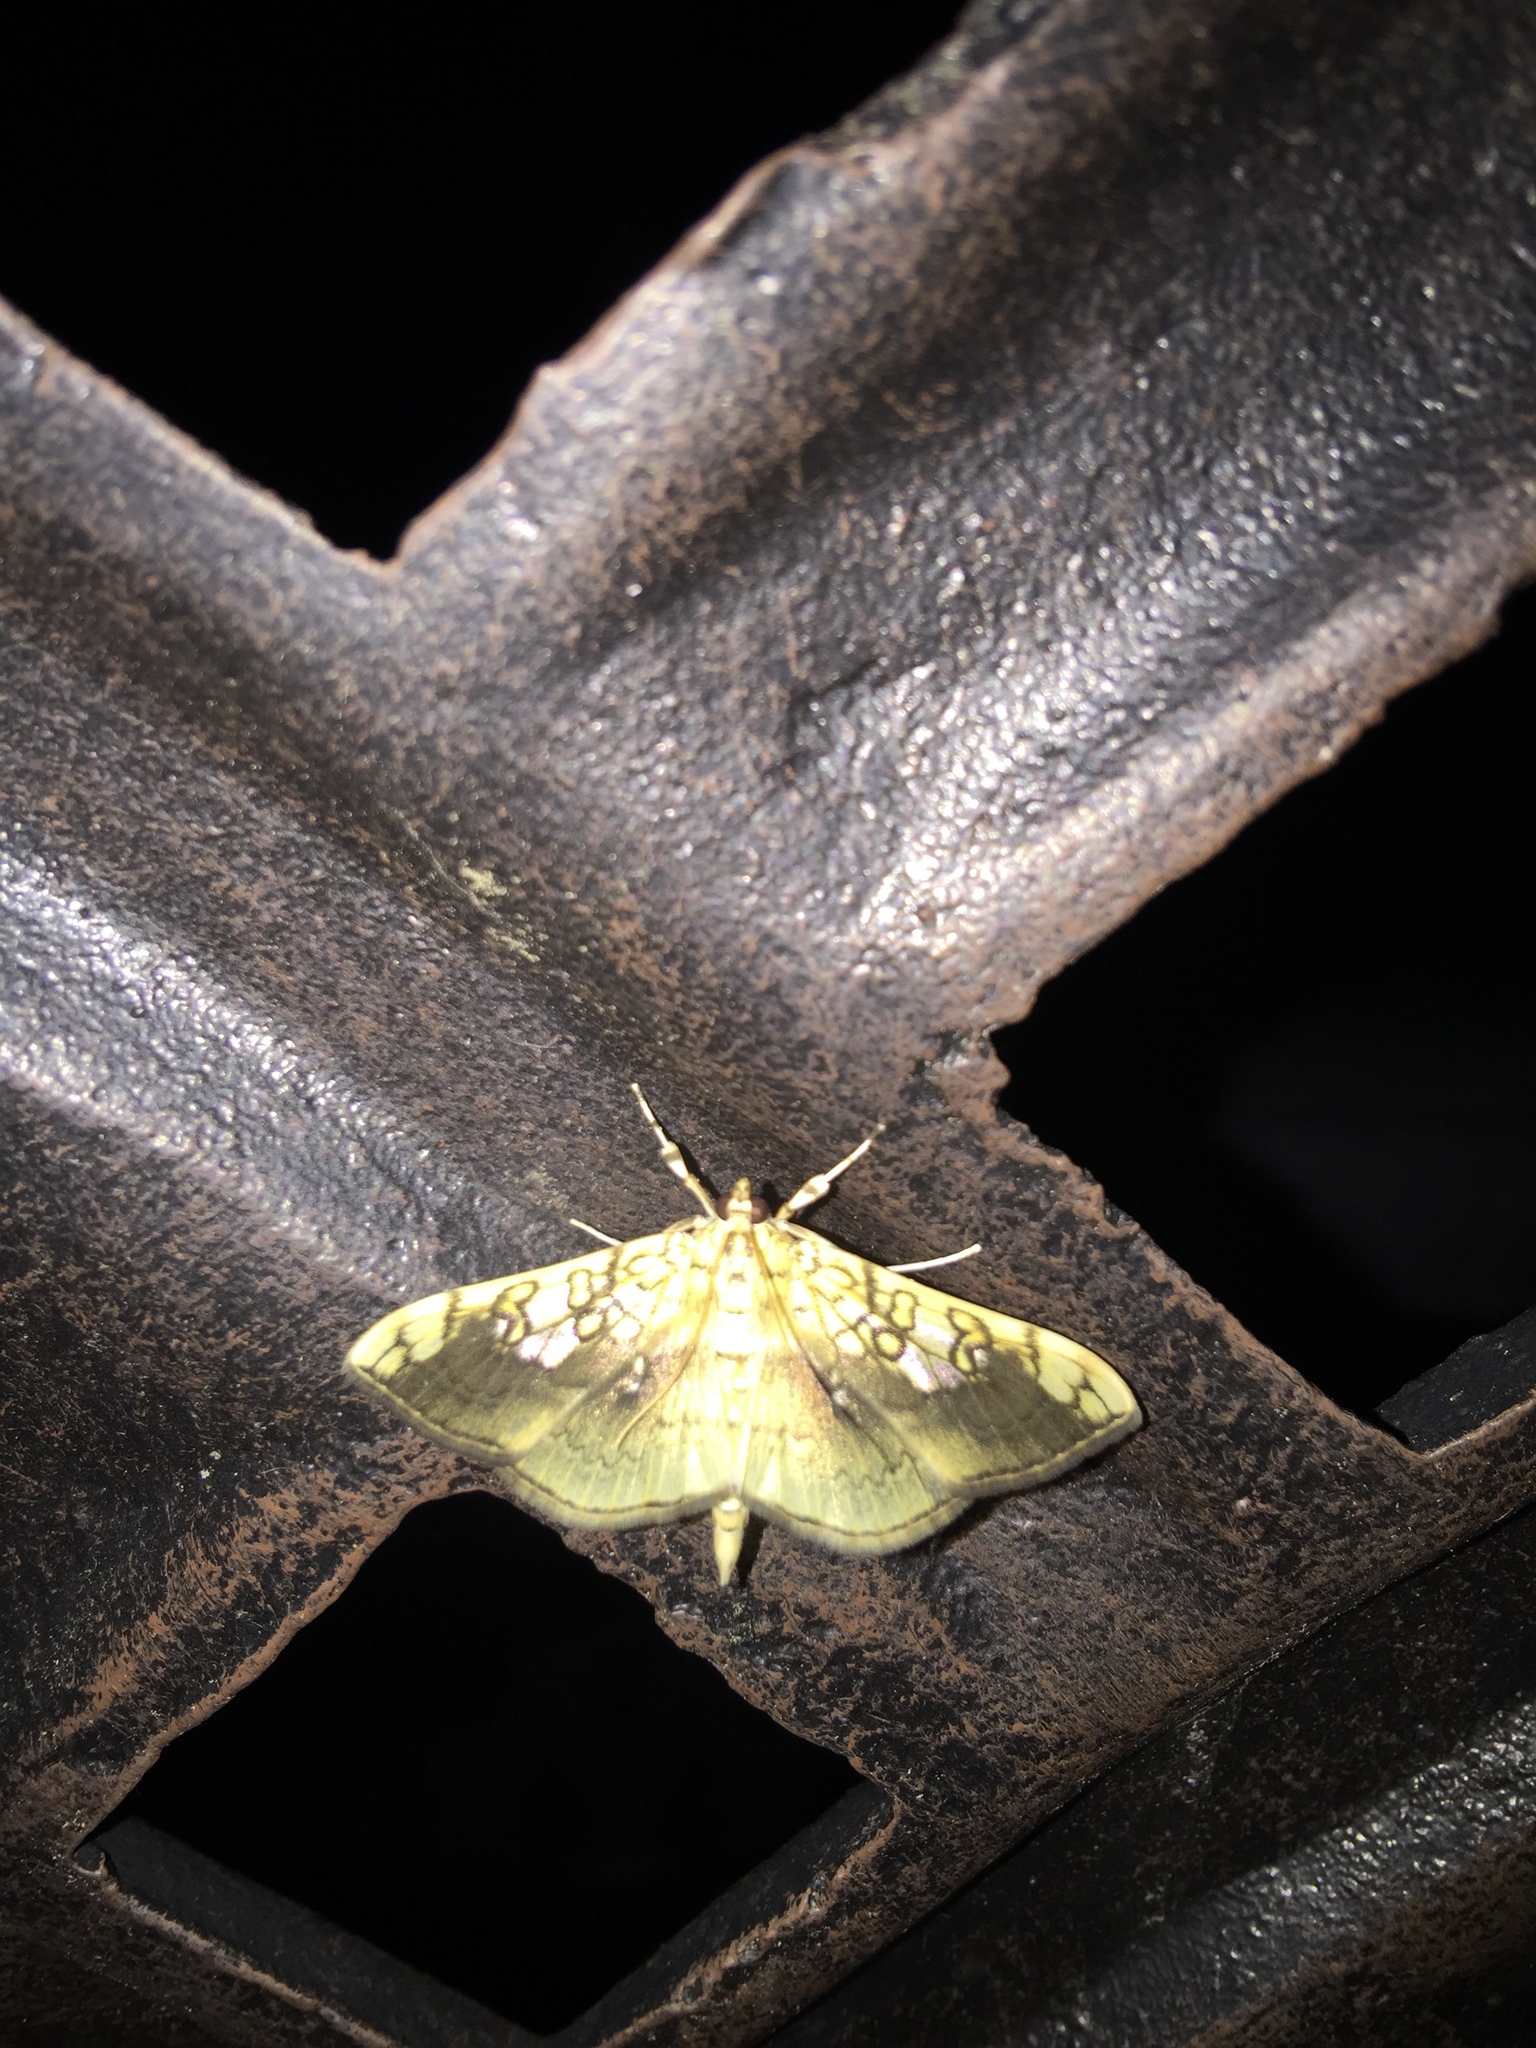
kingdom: Animalia
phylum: Arthropoda
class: Insecta
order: Lepidoptera
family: Crambidae
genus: Pantographa
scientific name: Pantographa limata
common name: Basswood leafroller moth
